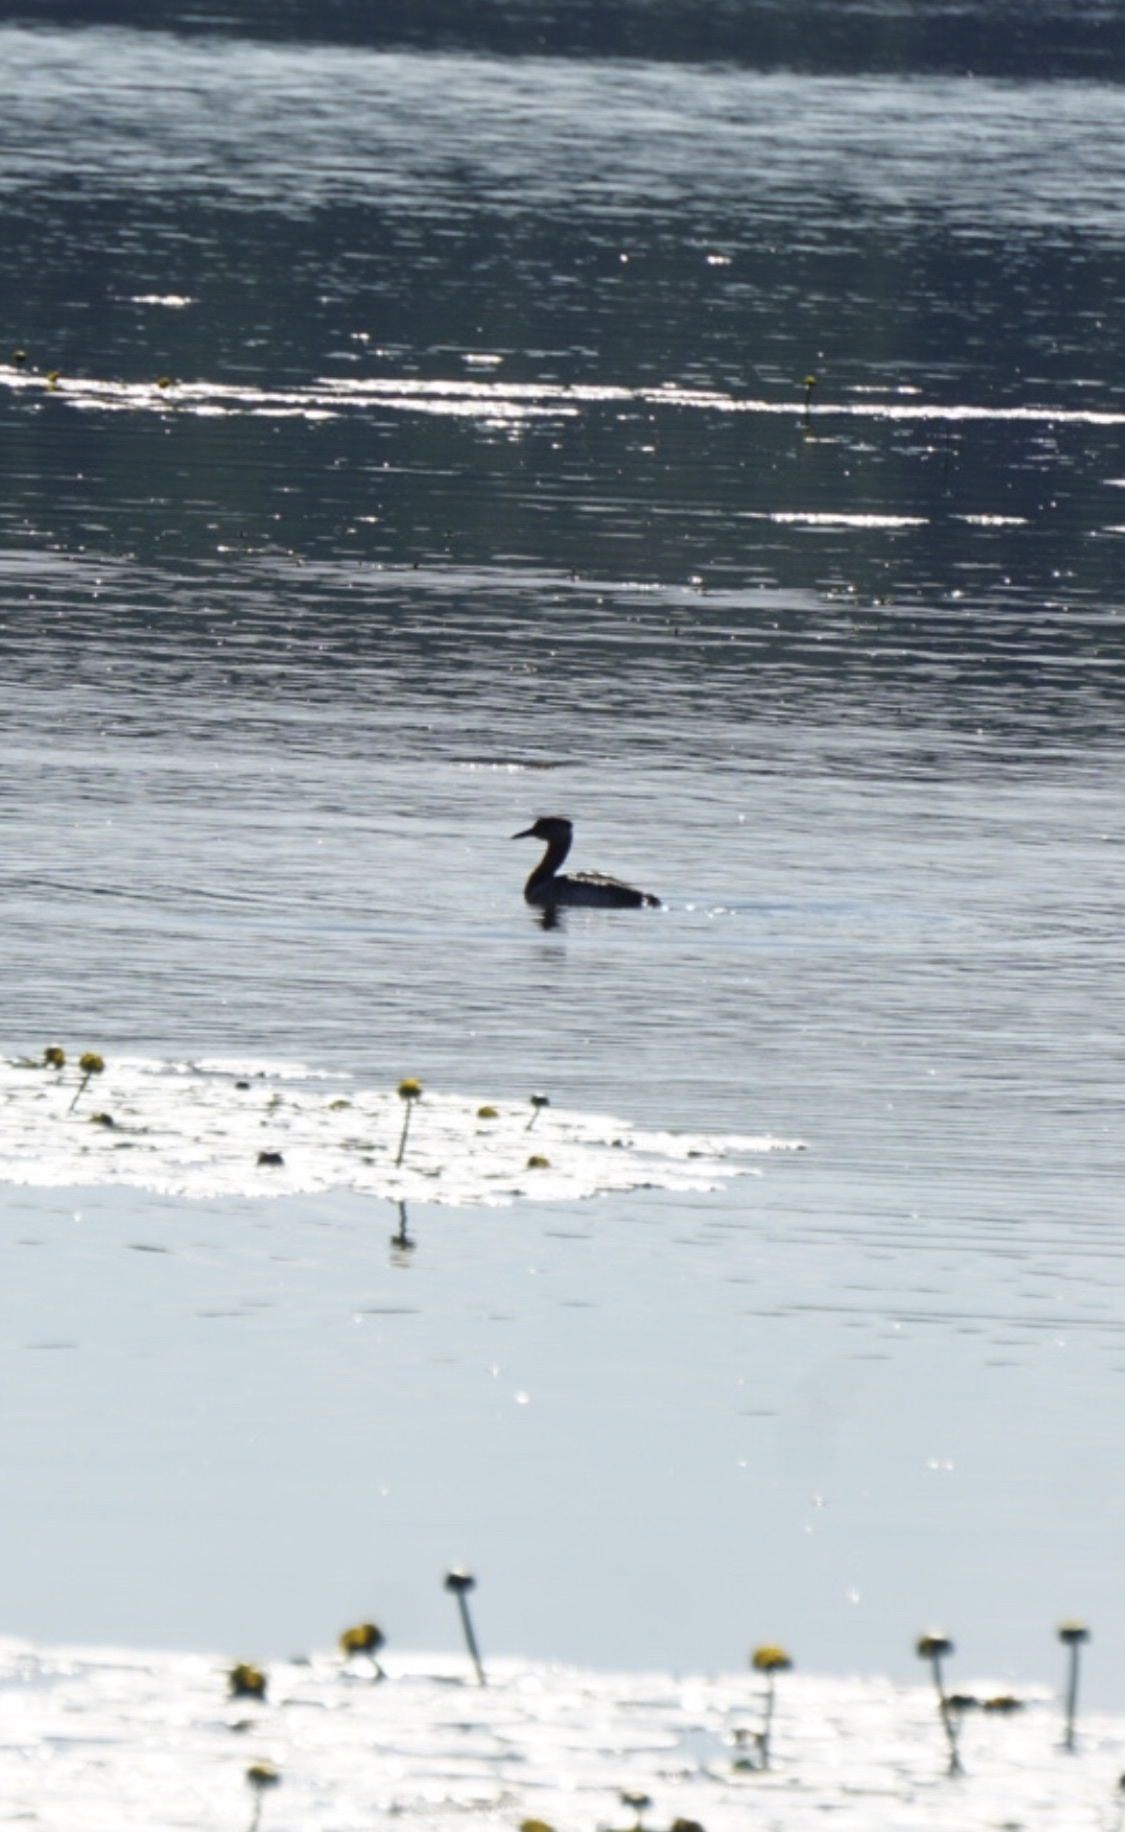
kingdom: Animalia
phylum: Chordata
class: Aves
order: Podicipediformes
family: Podicipedidae
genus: Podiceps
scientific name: Podiceps grisegena
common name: Red-necked grebe
